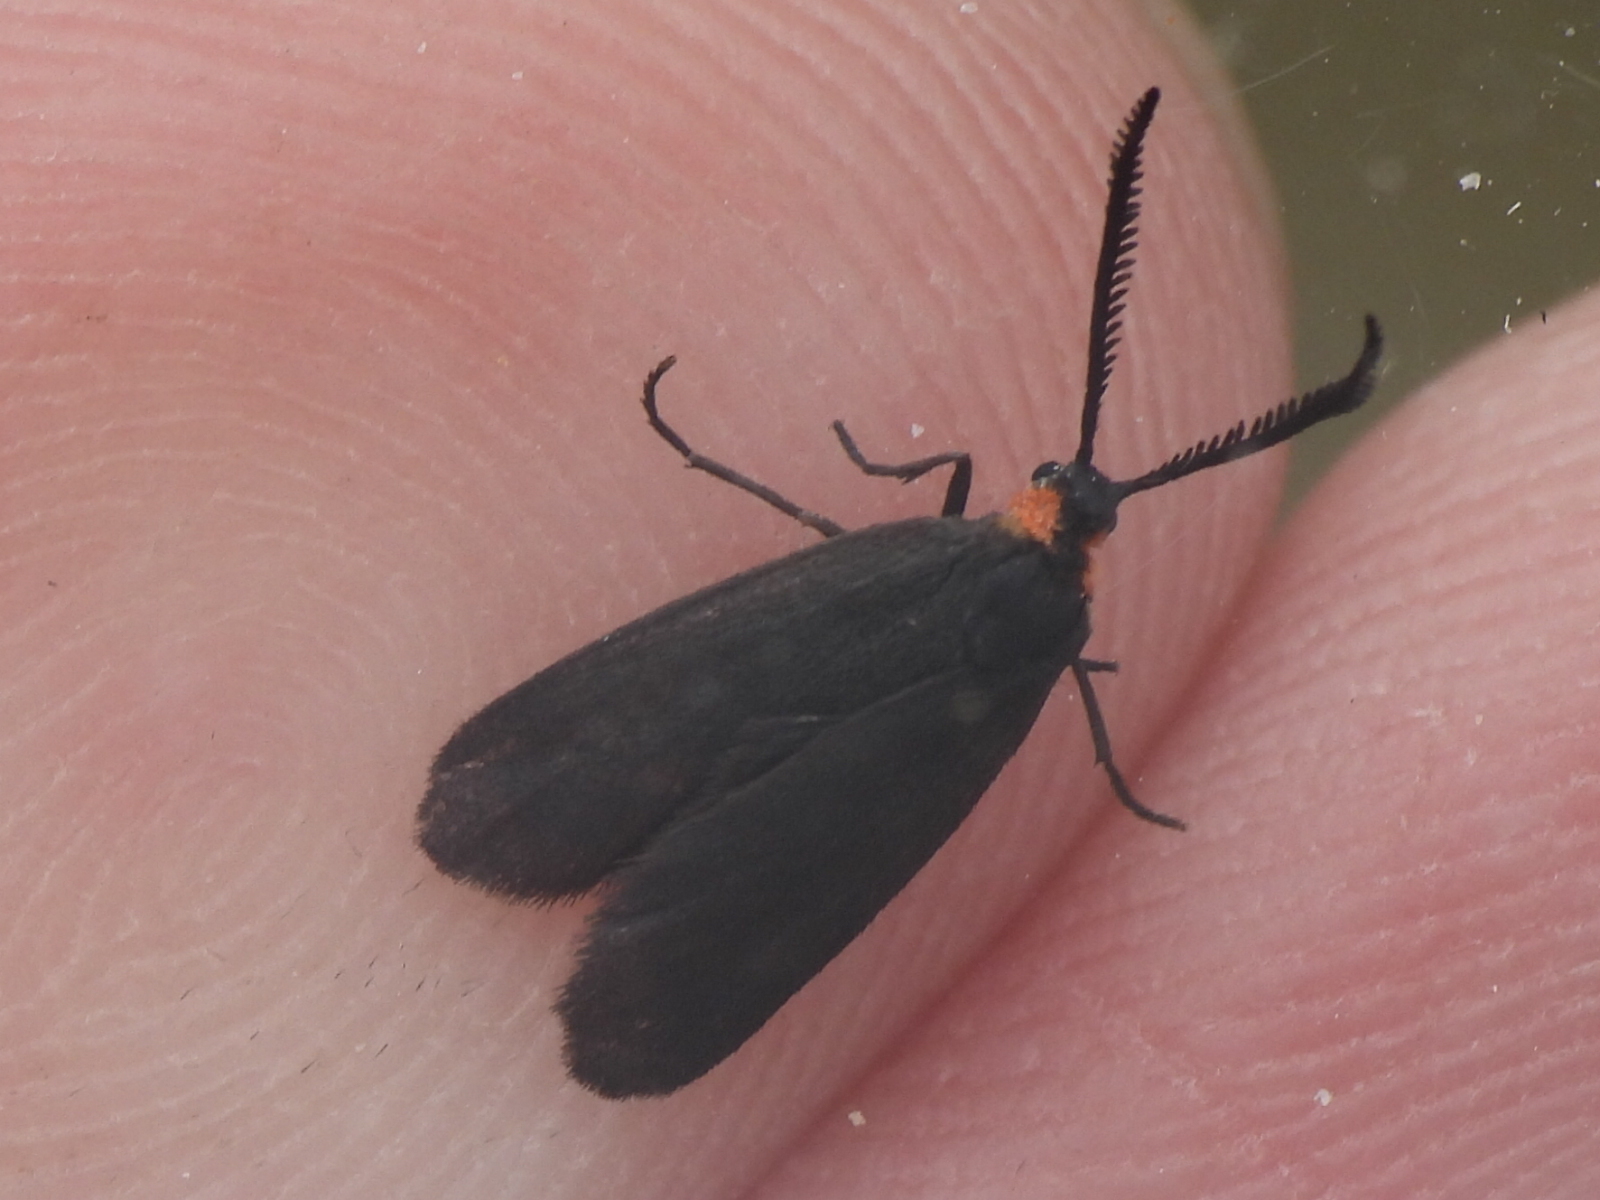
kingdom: Animalia
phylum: Arthropoda
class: Insecta
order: Lepidoptera
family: Zygaenidae
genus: Acoloithus
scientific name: Acoloithus falsarius
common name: Clemens' false skeletonizer
